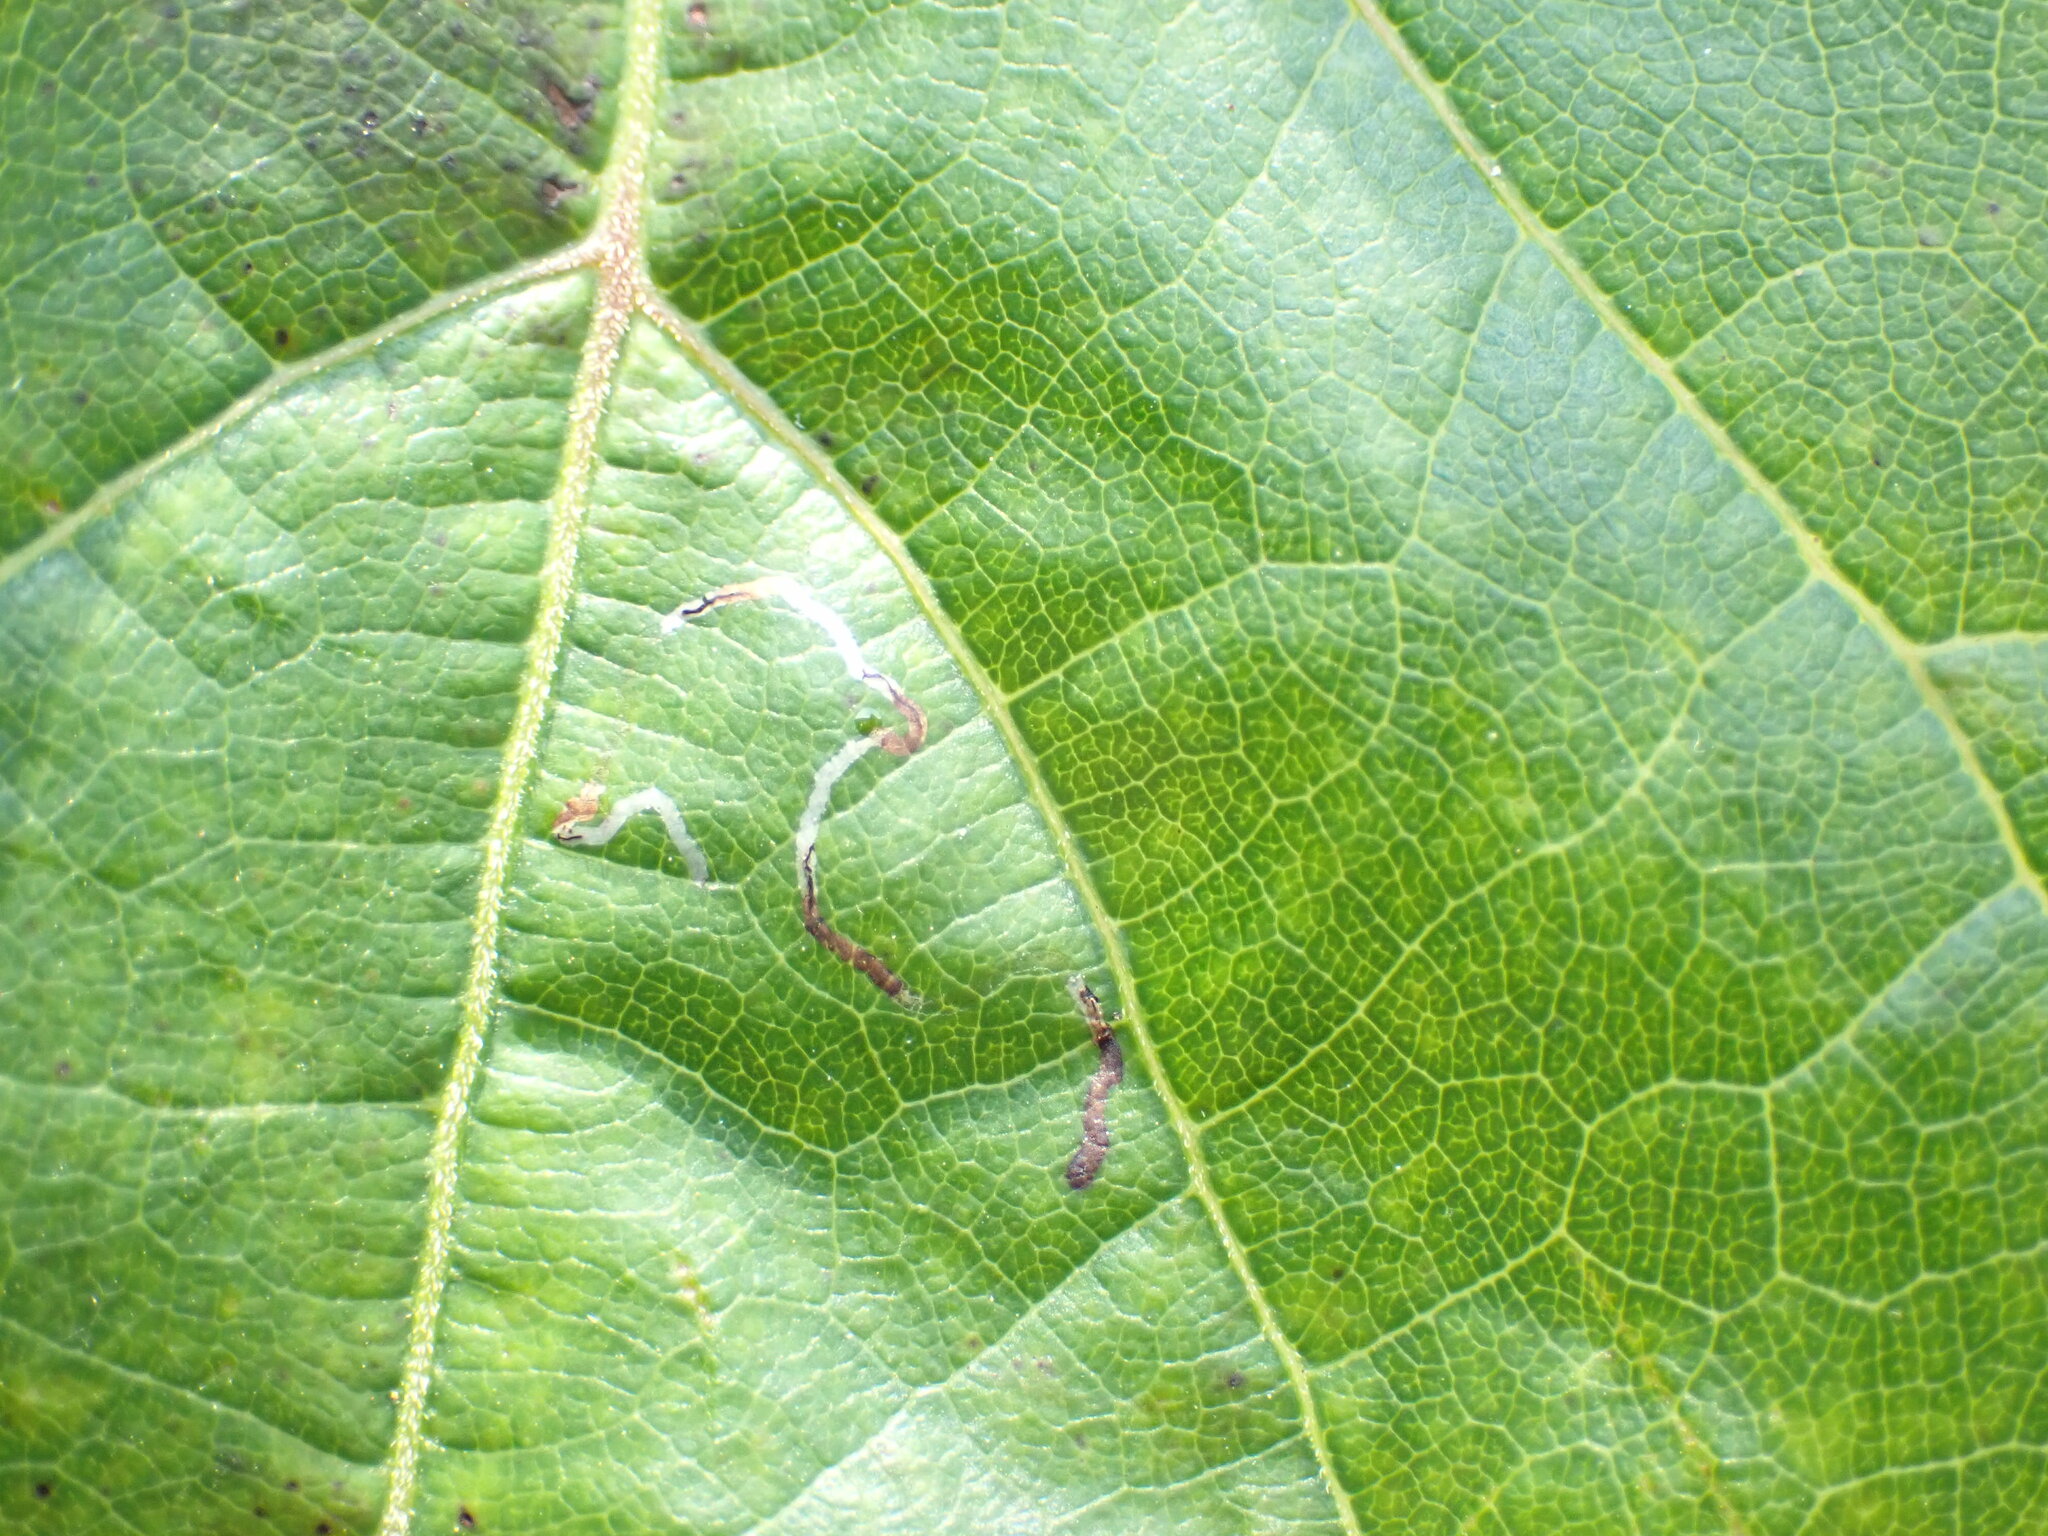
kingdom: Animalia
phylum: Arthropoda
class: Insecta
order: Lepidoptera
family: Gracillariidae
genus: Phyllocnistis
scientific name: Phyllocnistis vitegenella
